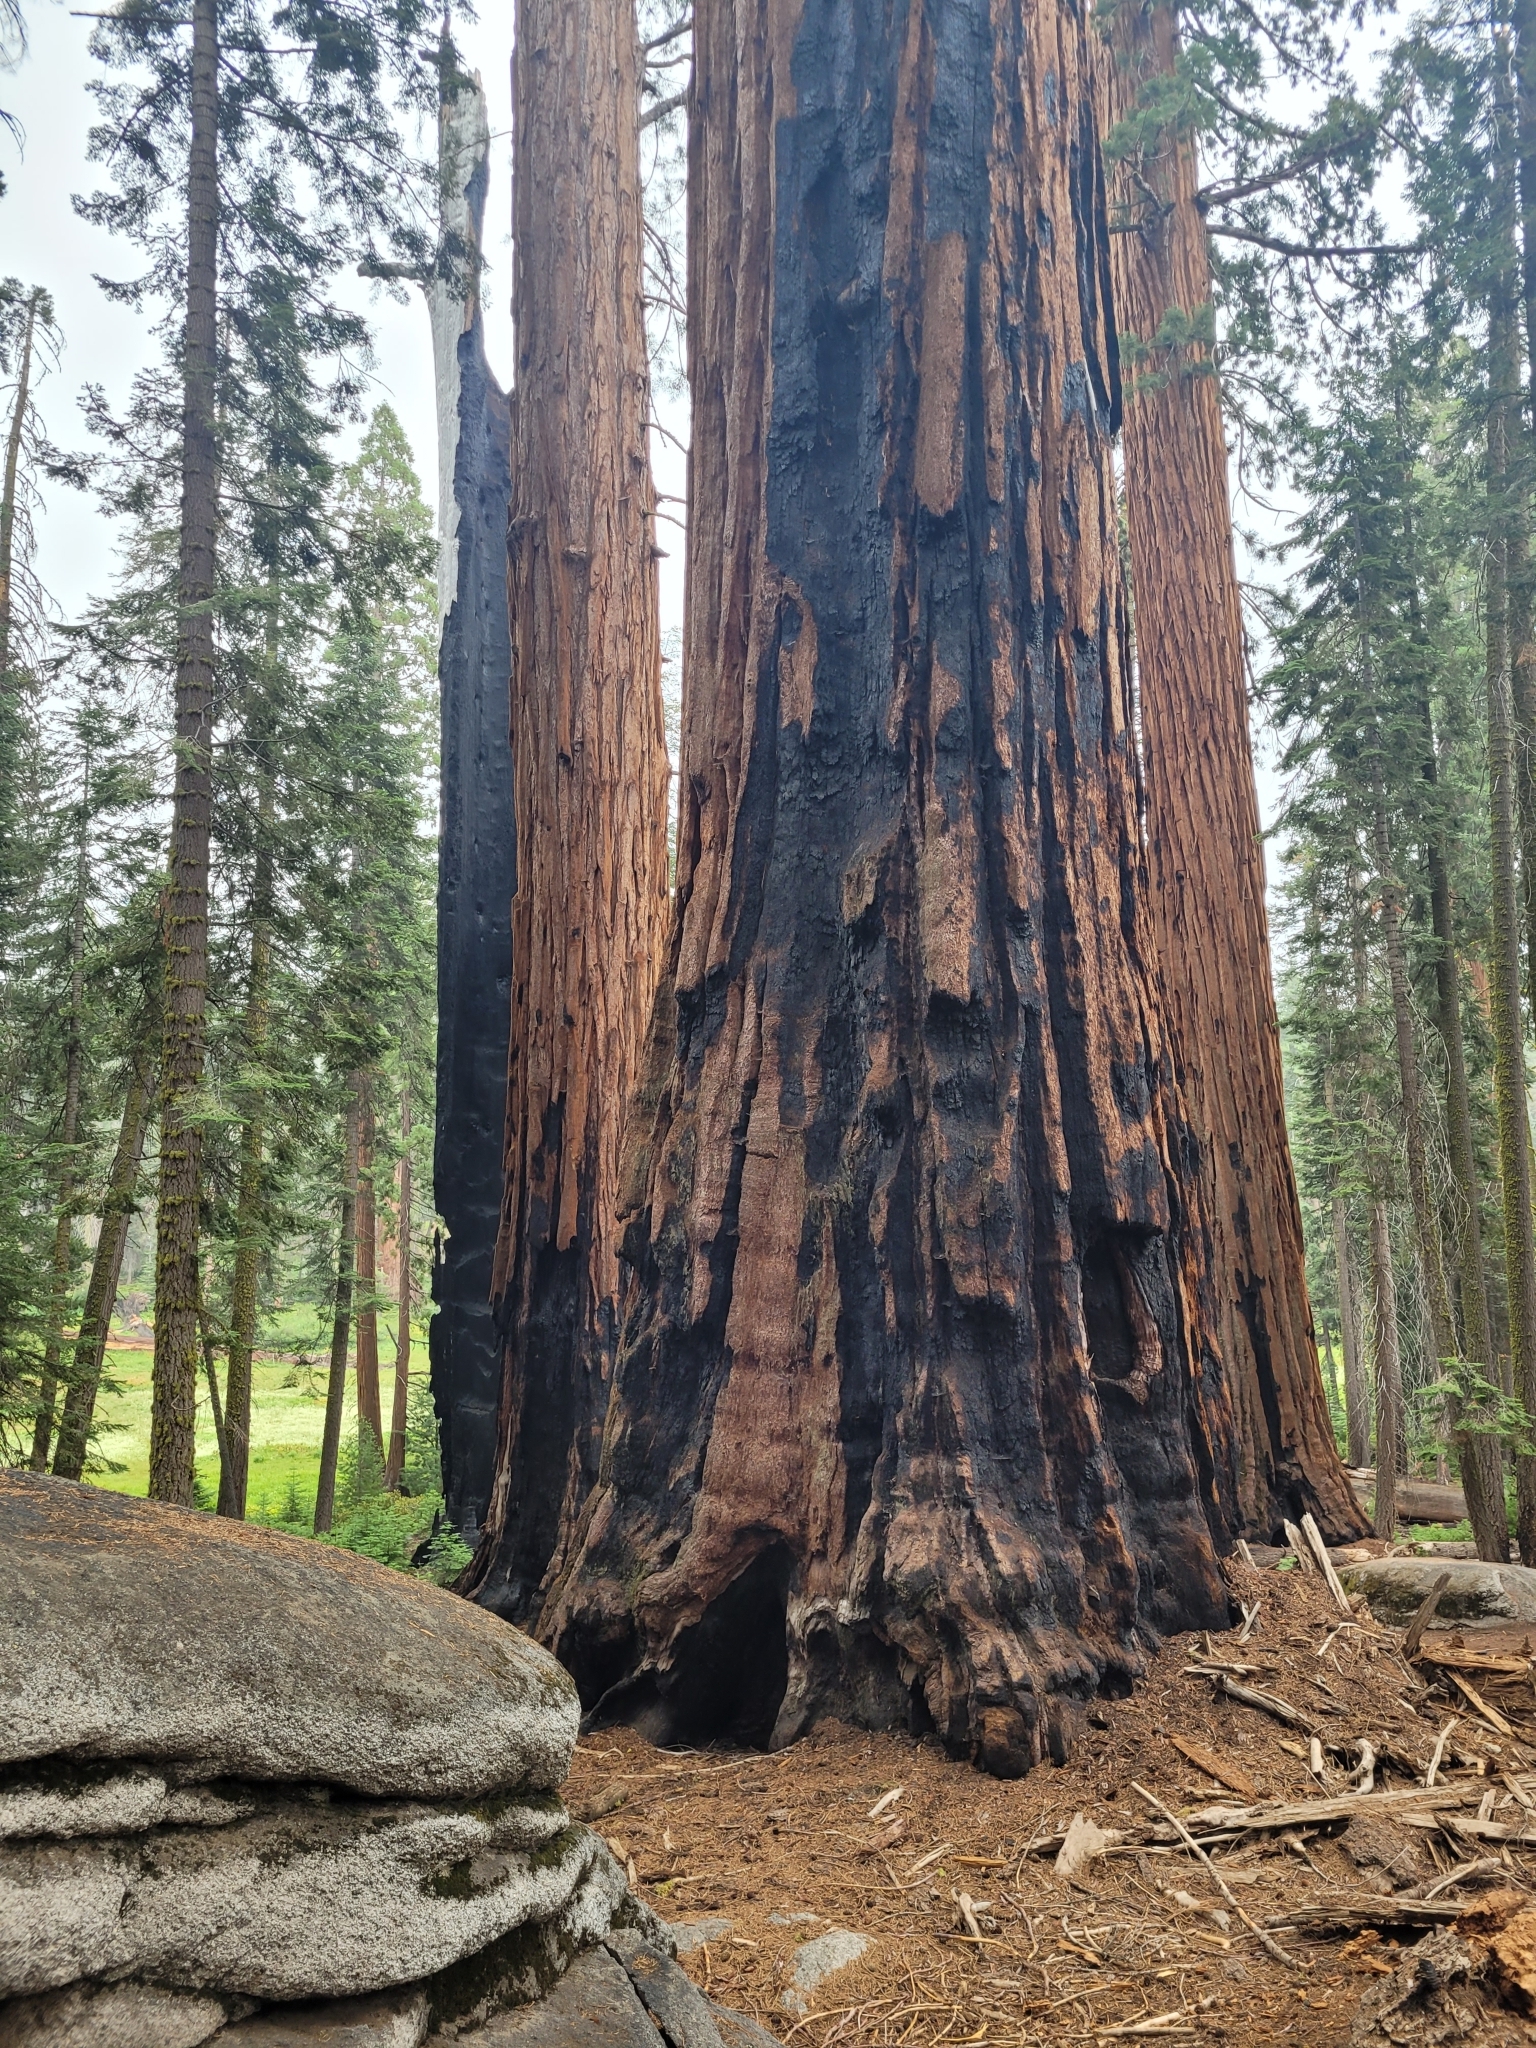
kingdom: Plantae
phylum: Tracheophyta
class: Pinopsida
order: Pinales
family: Cupressaceae
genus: Sequoiadendron
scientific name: Sequoiadendron giganteum
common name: Wellingtonia
